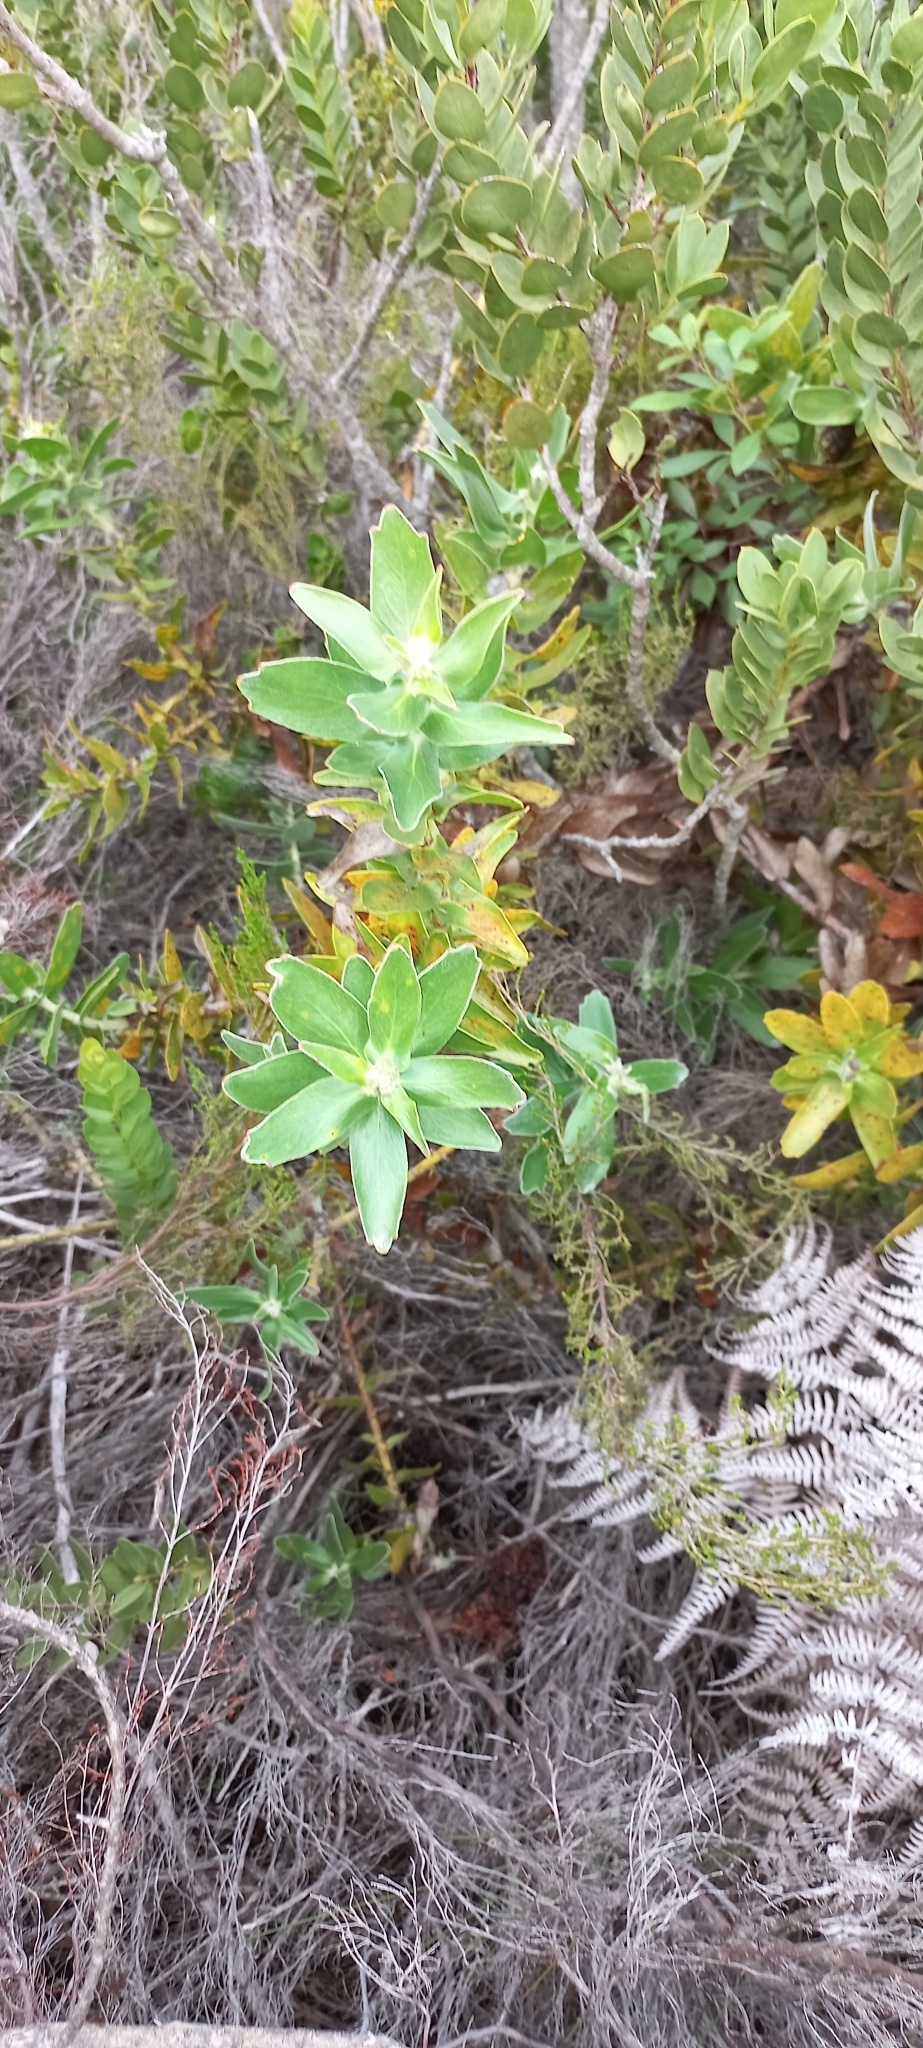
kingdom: Plantae
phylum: Tracheophyta
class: Magnoliopsida
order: Proteales
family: Proteaceae
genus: Leucospermum
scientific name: Leucospermum cordifolium
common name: Red pincushion-protea
